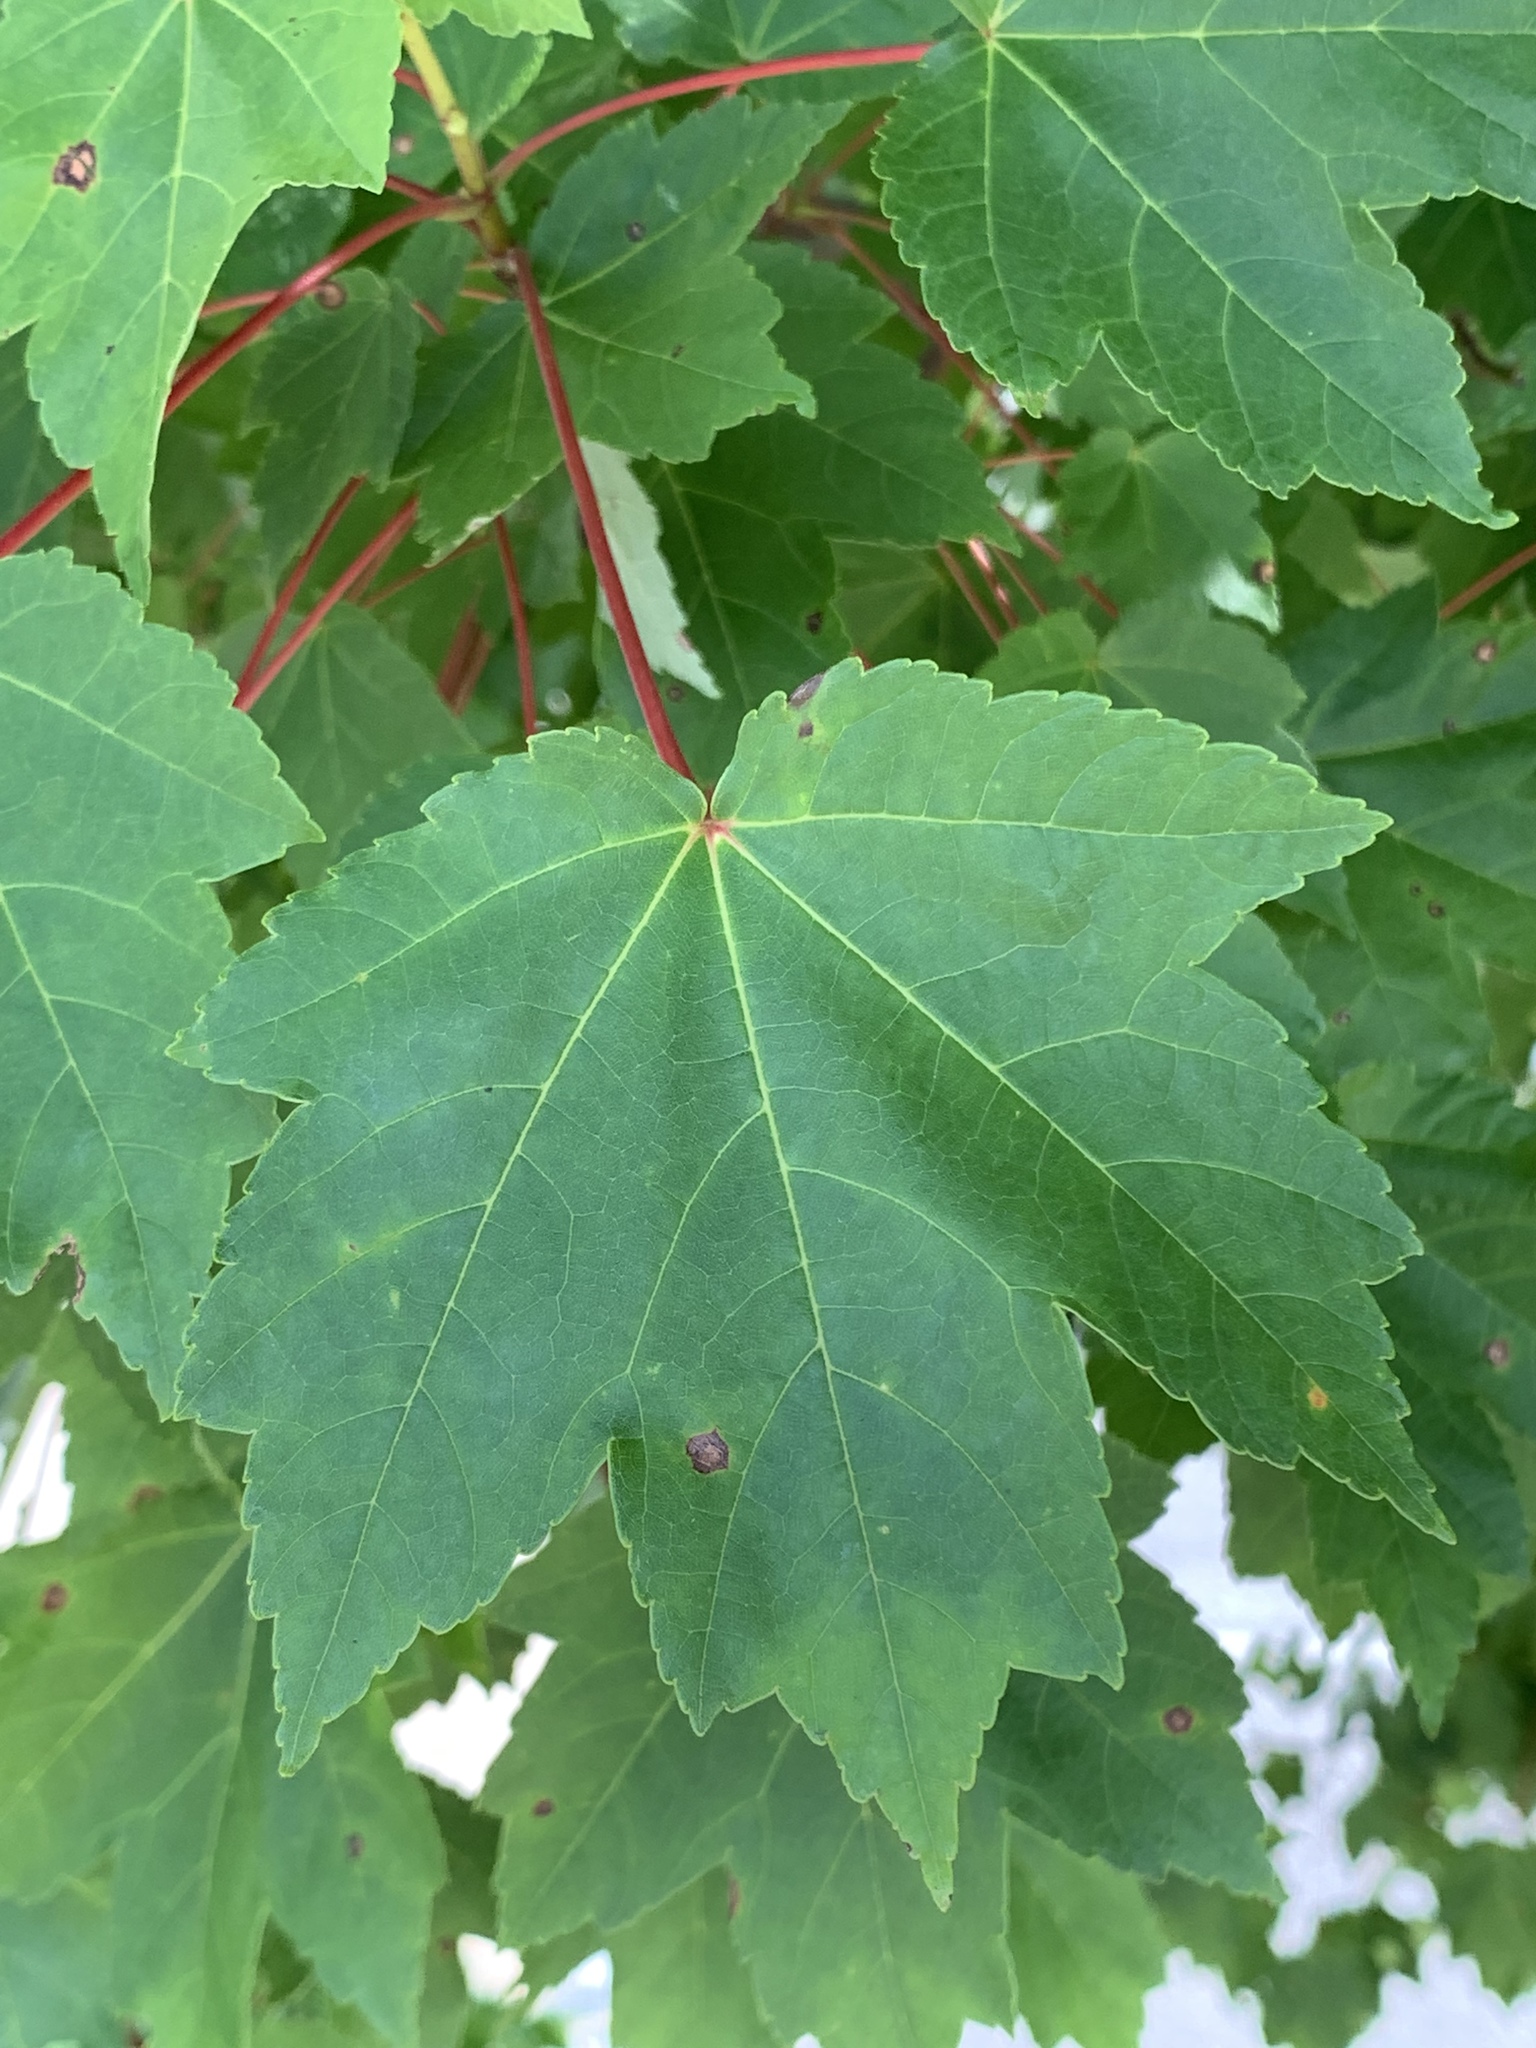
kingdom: Plantae
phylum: Tracheophyta
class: Magnoliopsida
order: Sapindales
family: Sapindaceae
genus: Acer
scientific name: Acer rubrum
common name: Red maple
